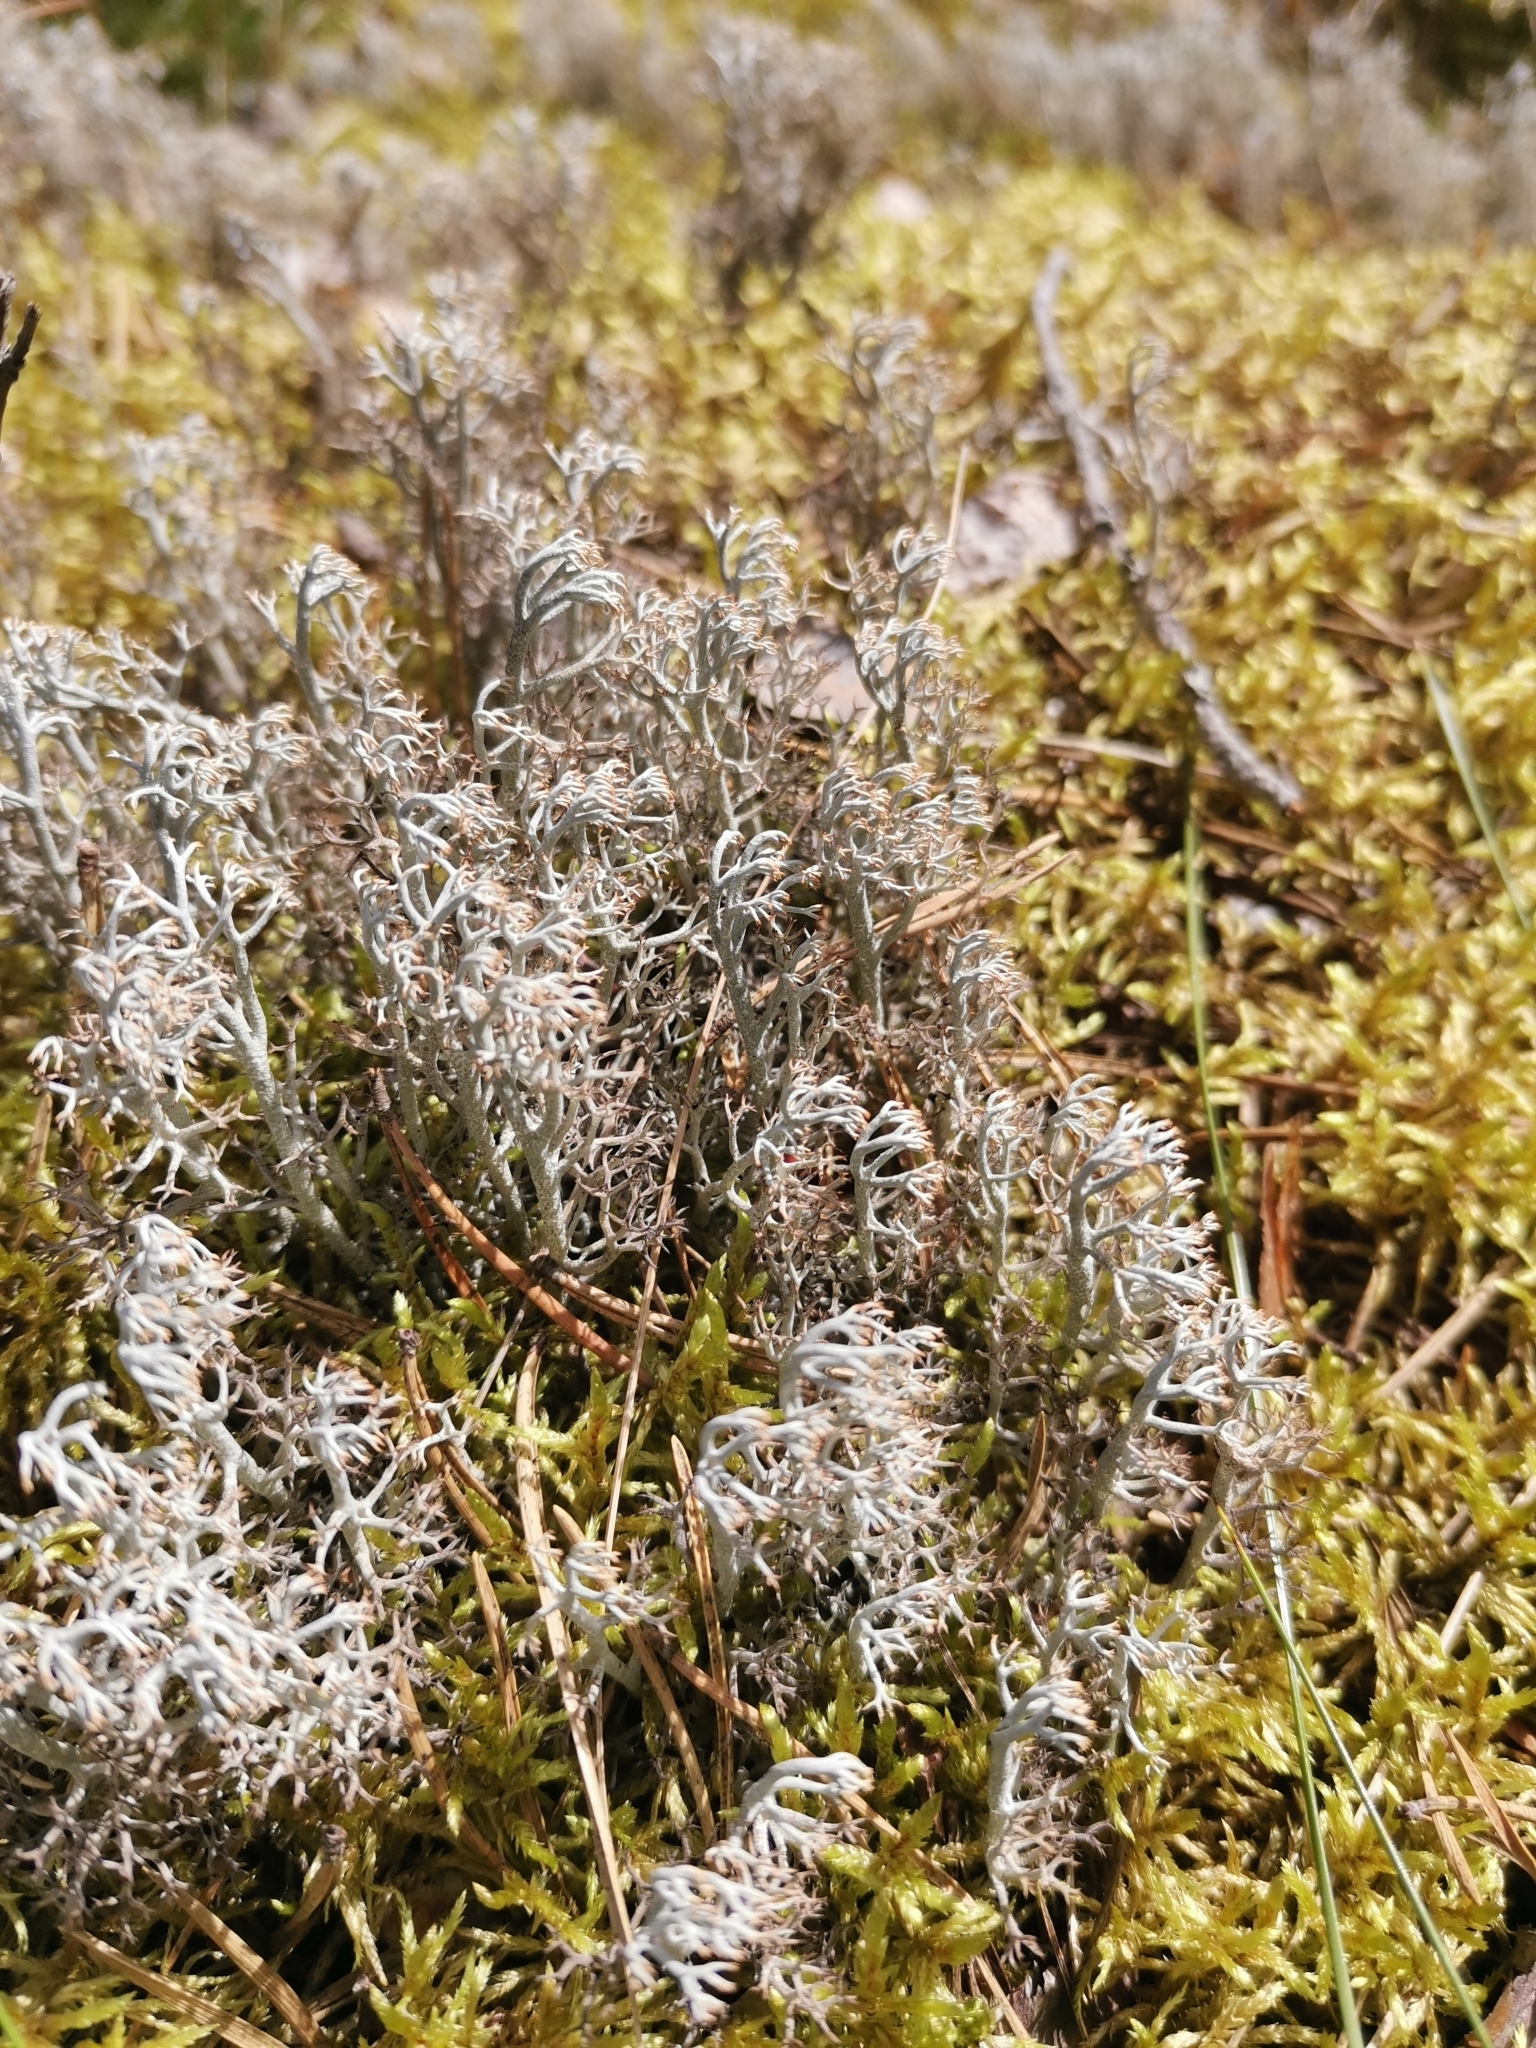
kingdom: Fungi
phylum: Ascomycota
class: Lecanoromycetes
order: Lecanorales
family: Cladoniaceae
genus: Cladonia
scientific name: Cladonia rangiferina
